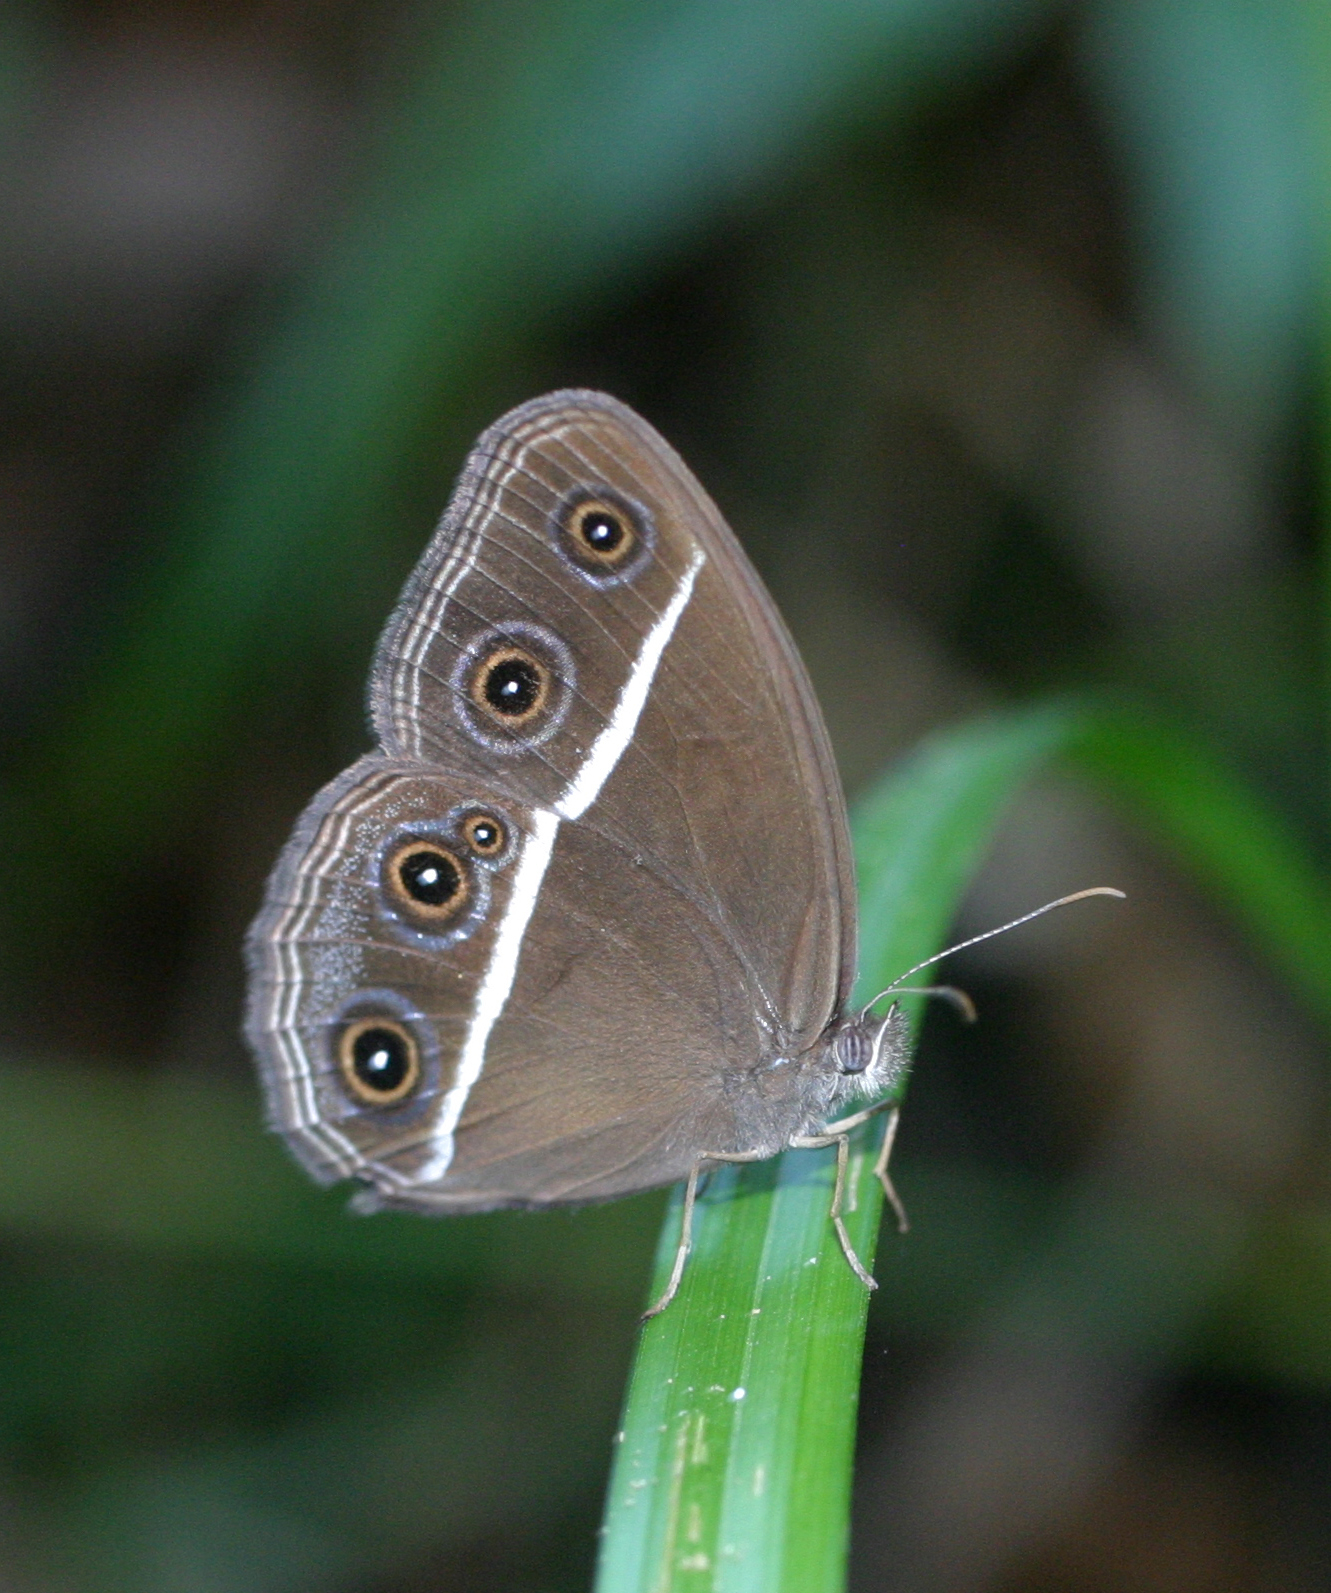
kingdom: Animalia
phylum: Arthropoda
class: Insecta
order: Lepidoptera
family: Nymphalidae
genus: Orsotriaena
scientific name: Orsotriaena medus
